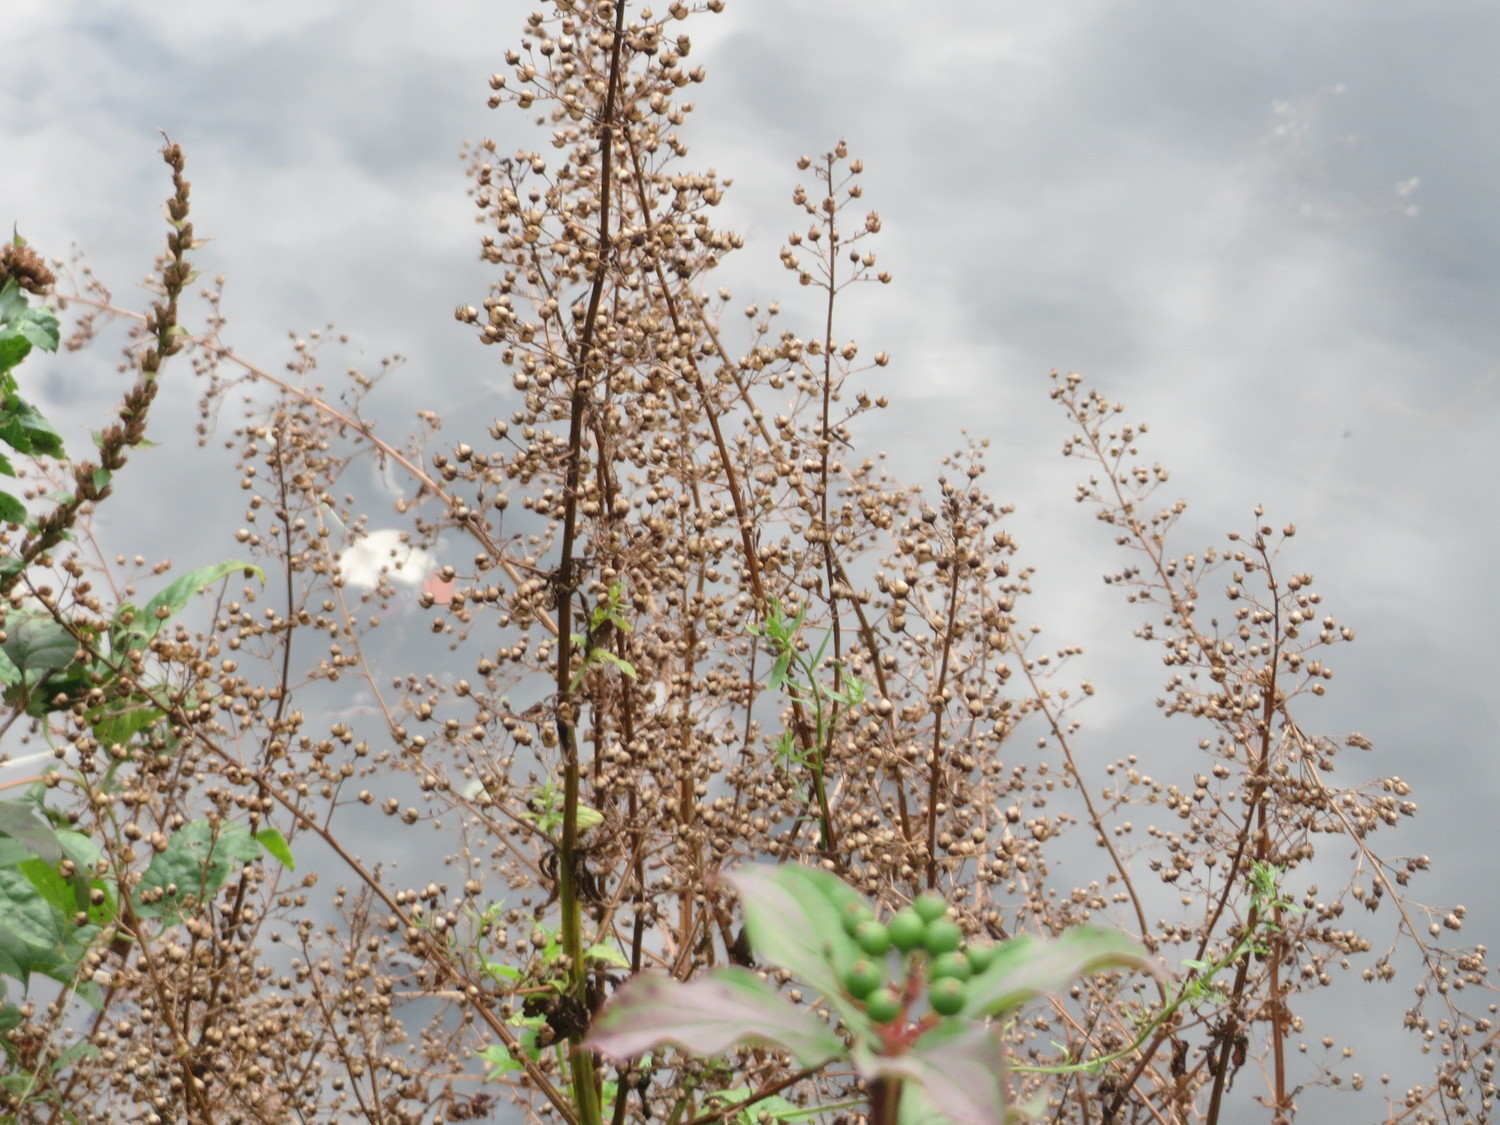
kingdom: Plantae
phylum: Tracheophyta
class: Magnoliopsida
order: Lamiales
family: Scrophulariaceae
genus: Scrophularia
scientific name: Scrophularia nodosa
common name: Common figwort
